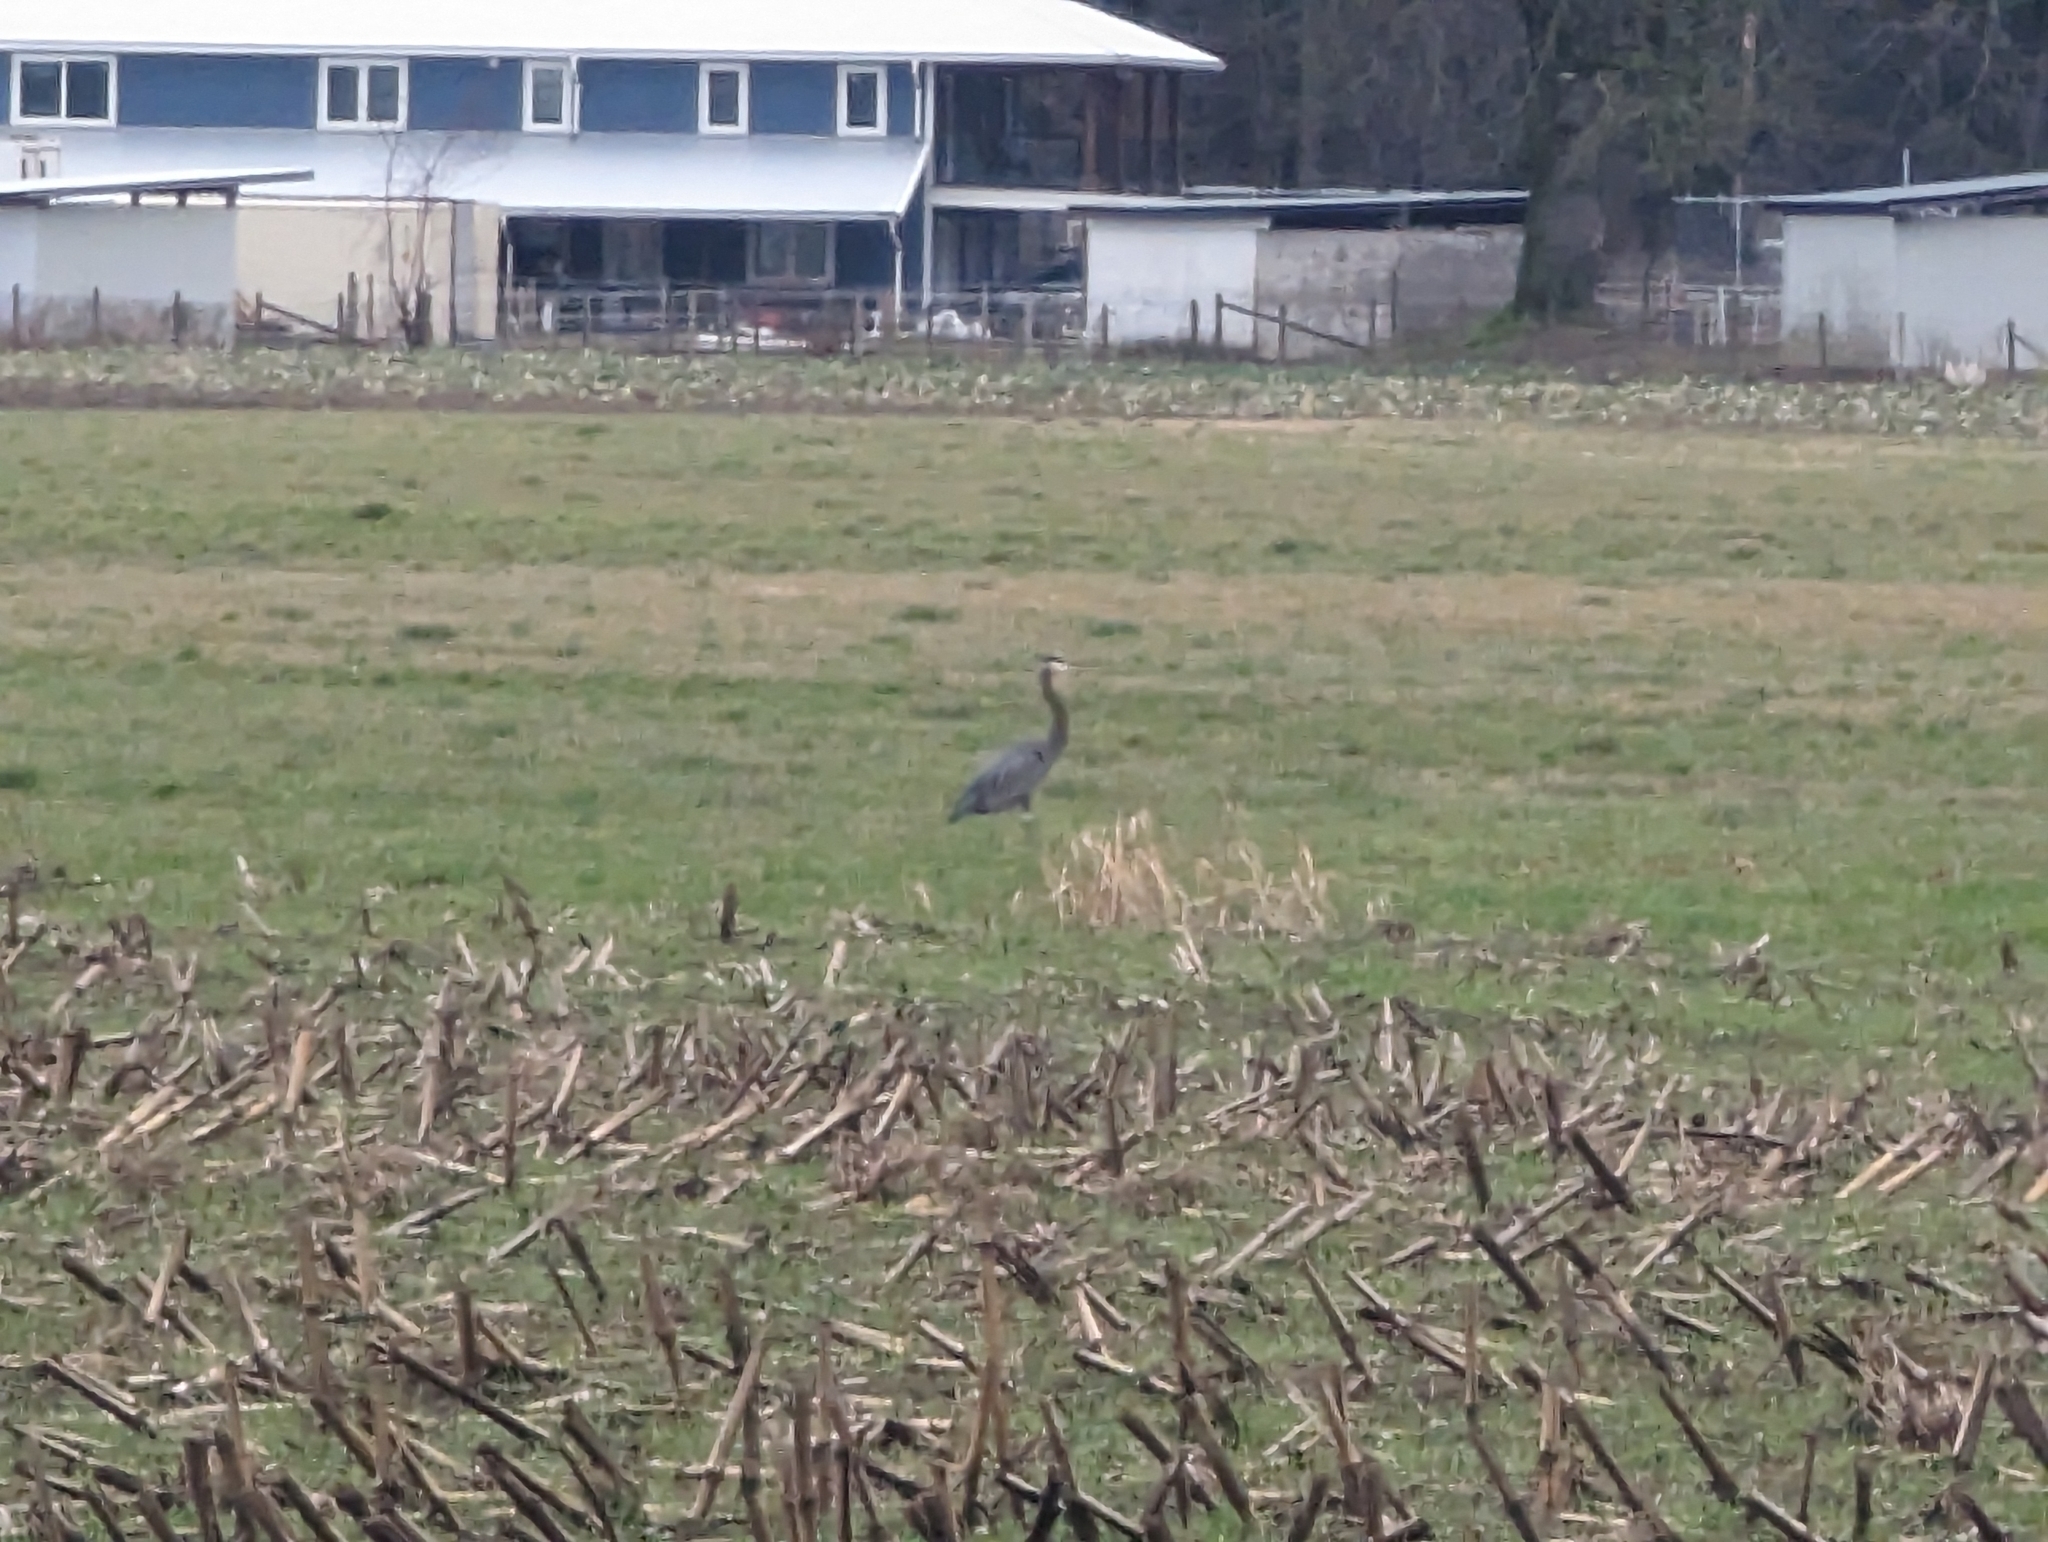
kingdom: Animalia
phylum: Chordata
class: Aves
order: Pelecaniformes
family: Ardeidae
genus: Ardea
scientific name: Ardea herodias
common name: Great blue heron
